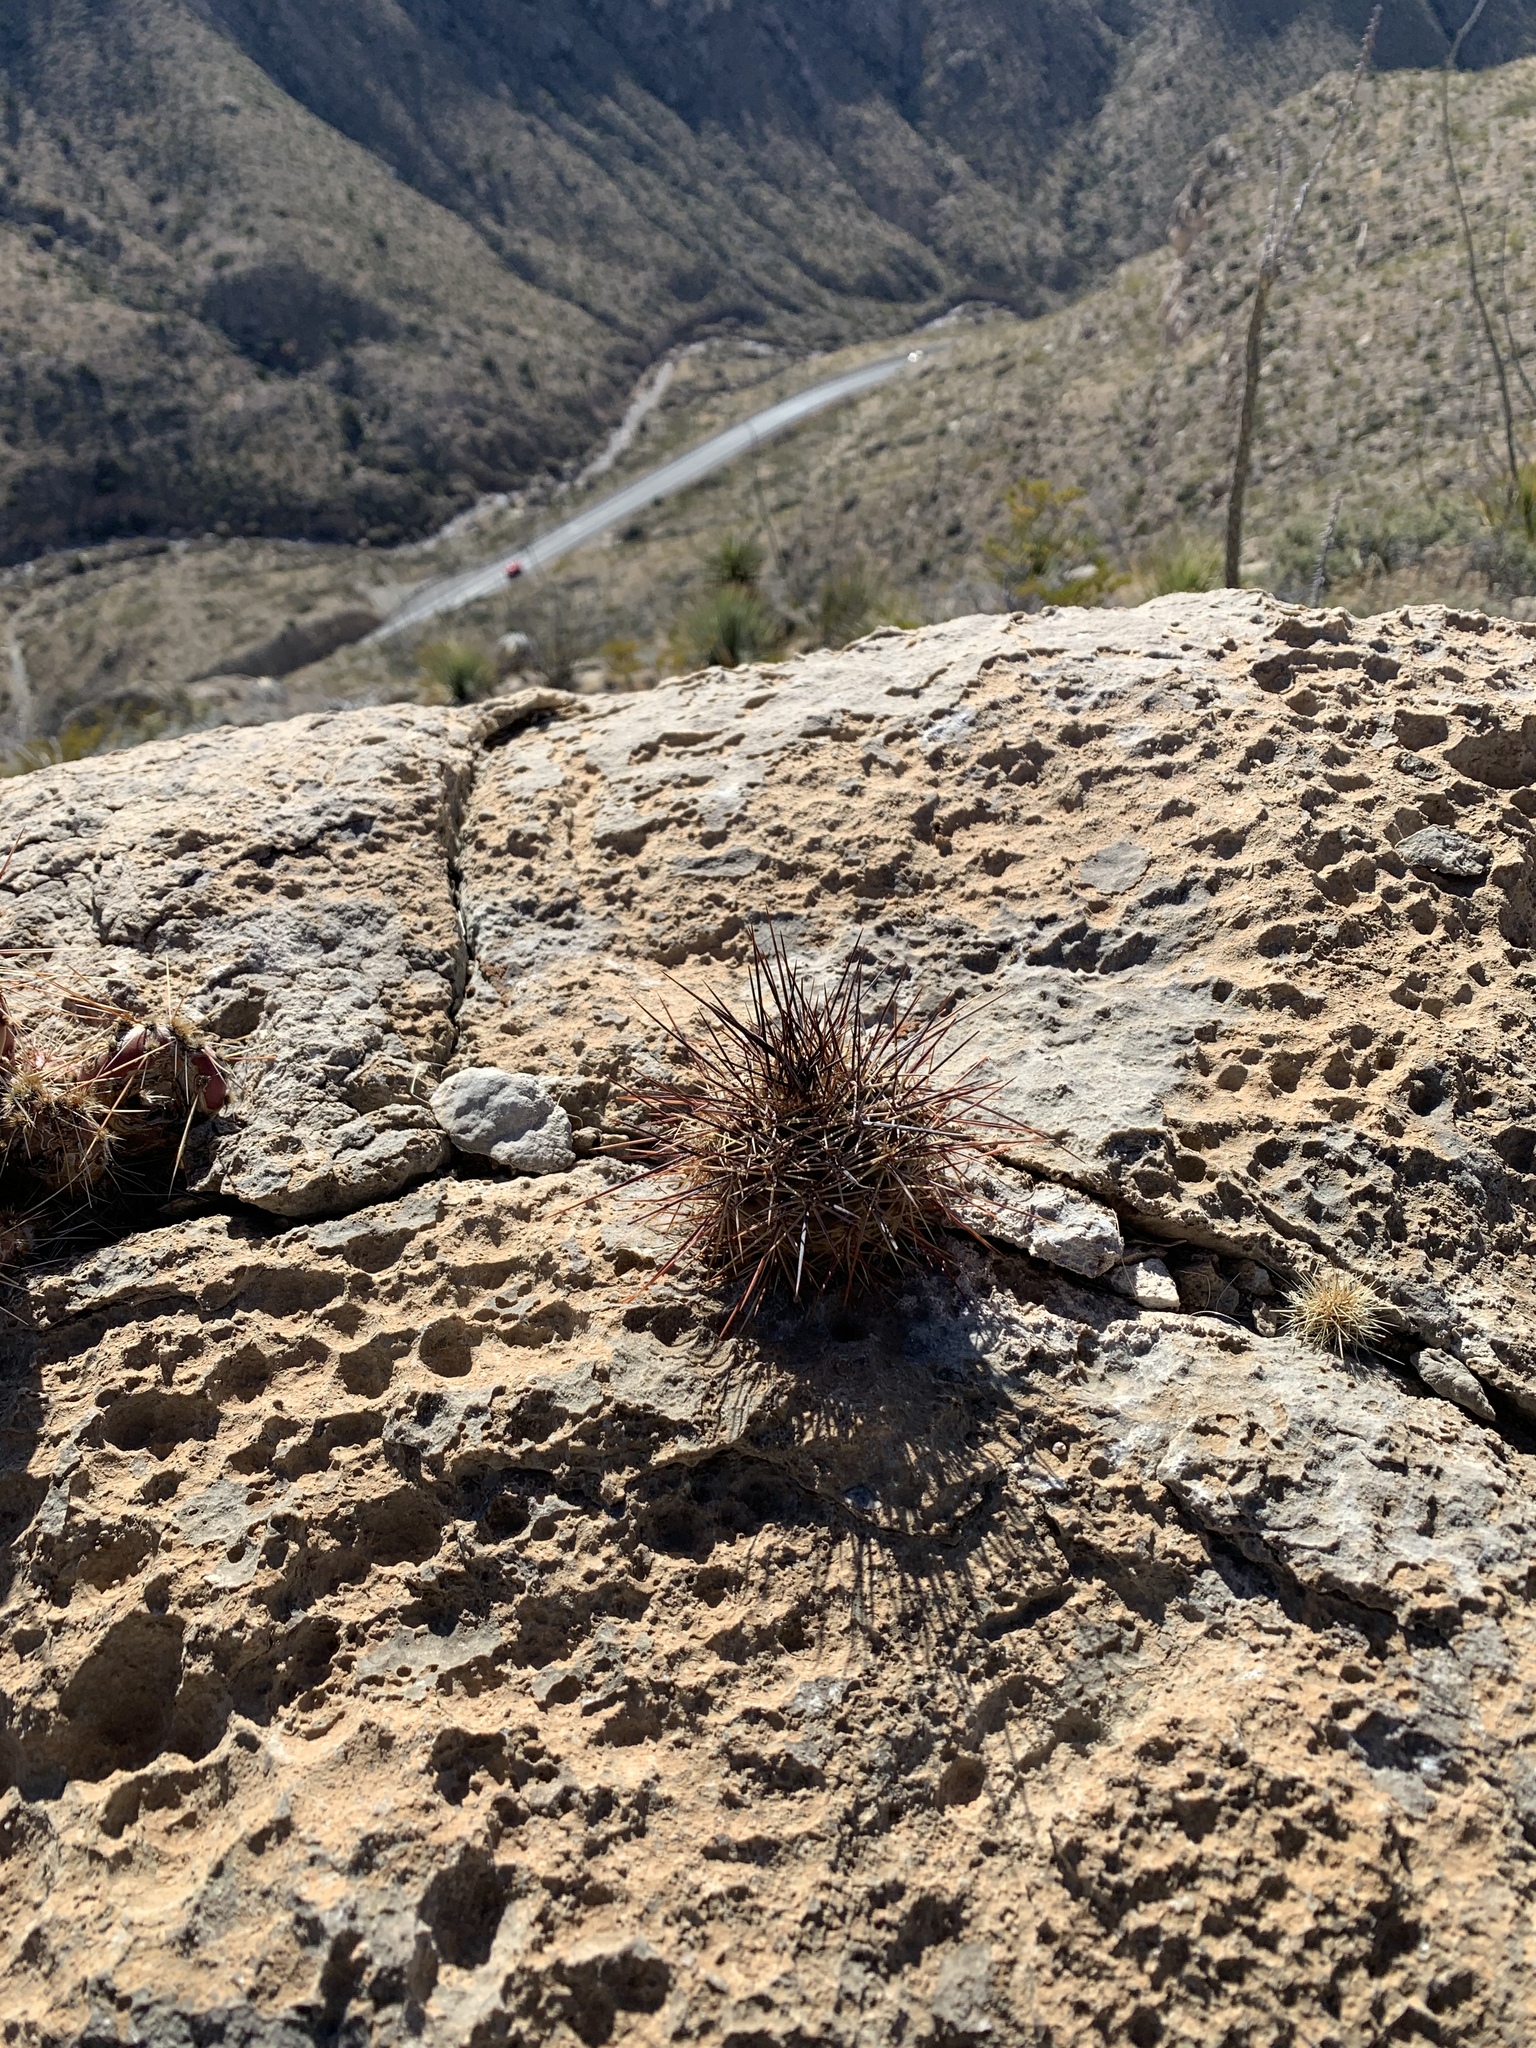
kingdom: Plantae
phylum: Tracheophyta
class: Magnoliopsida
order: Caryophyllales
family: Cactaceae
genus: Echinocereus
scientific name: Echinocereus coccineus
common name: Scarlet hedgehog cactus
